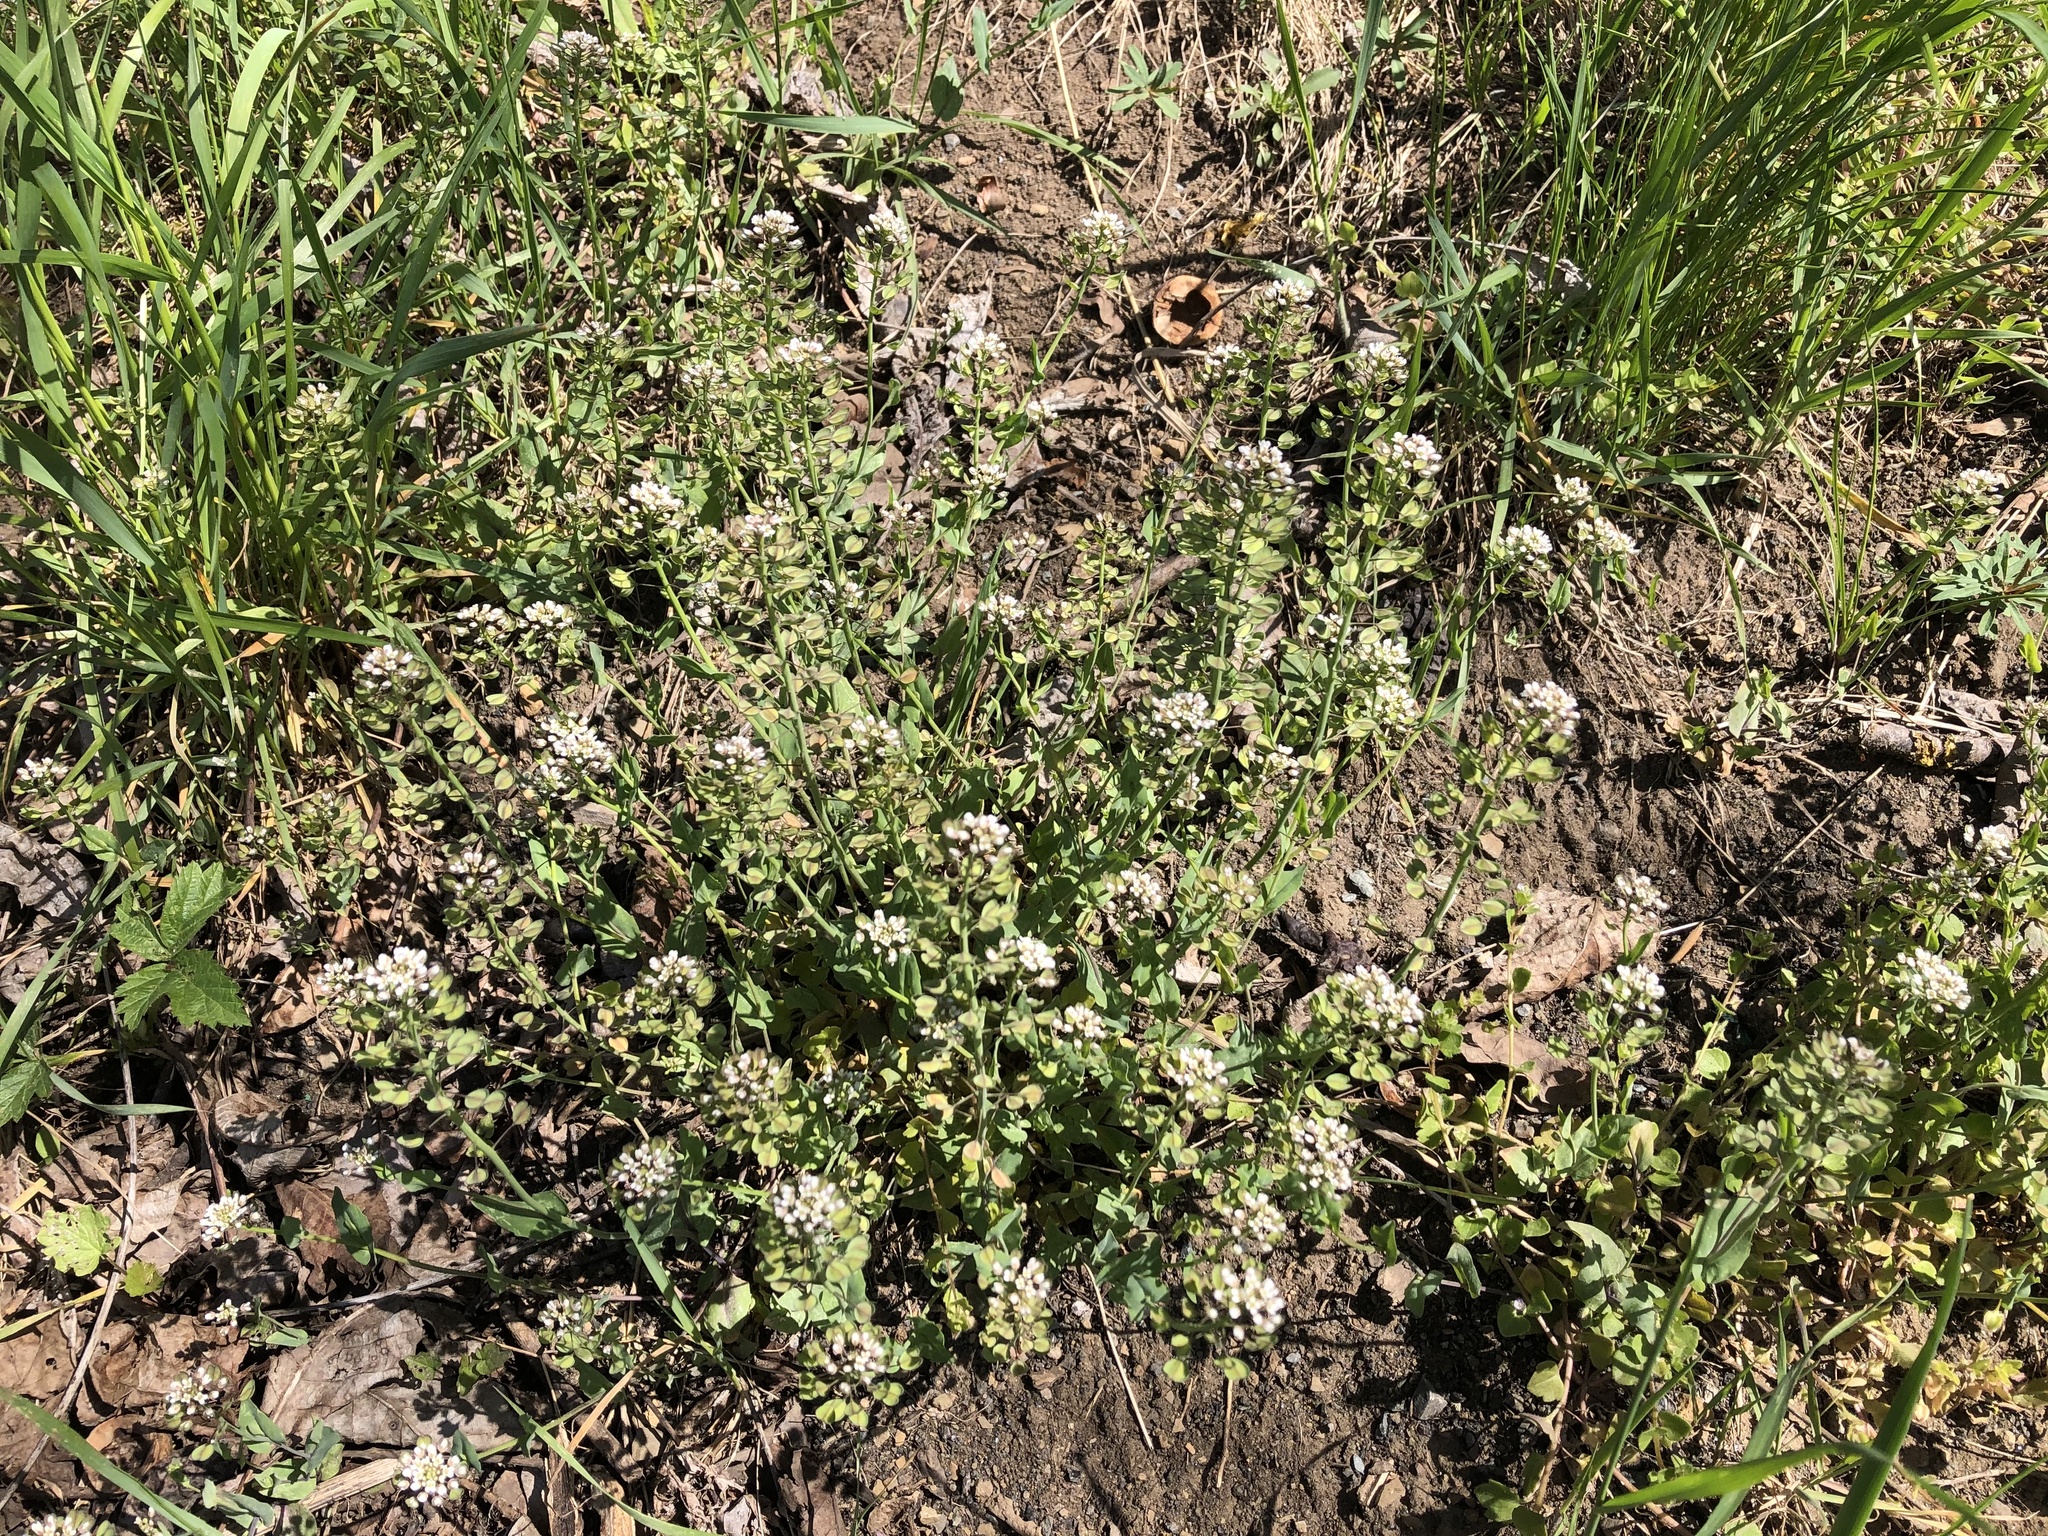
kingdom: Plantae
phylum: Tracheophyta
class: Magnoliopsida
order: Brassicales
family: Brassicaceae
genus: Noccaea
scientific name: Noccaea perfoliata
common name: Perfoliate pennycress
